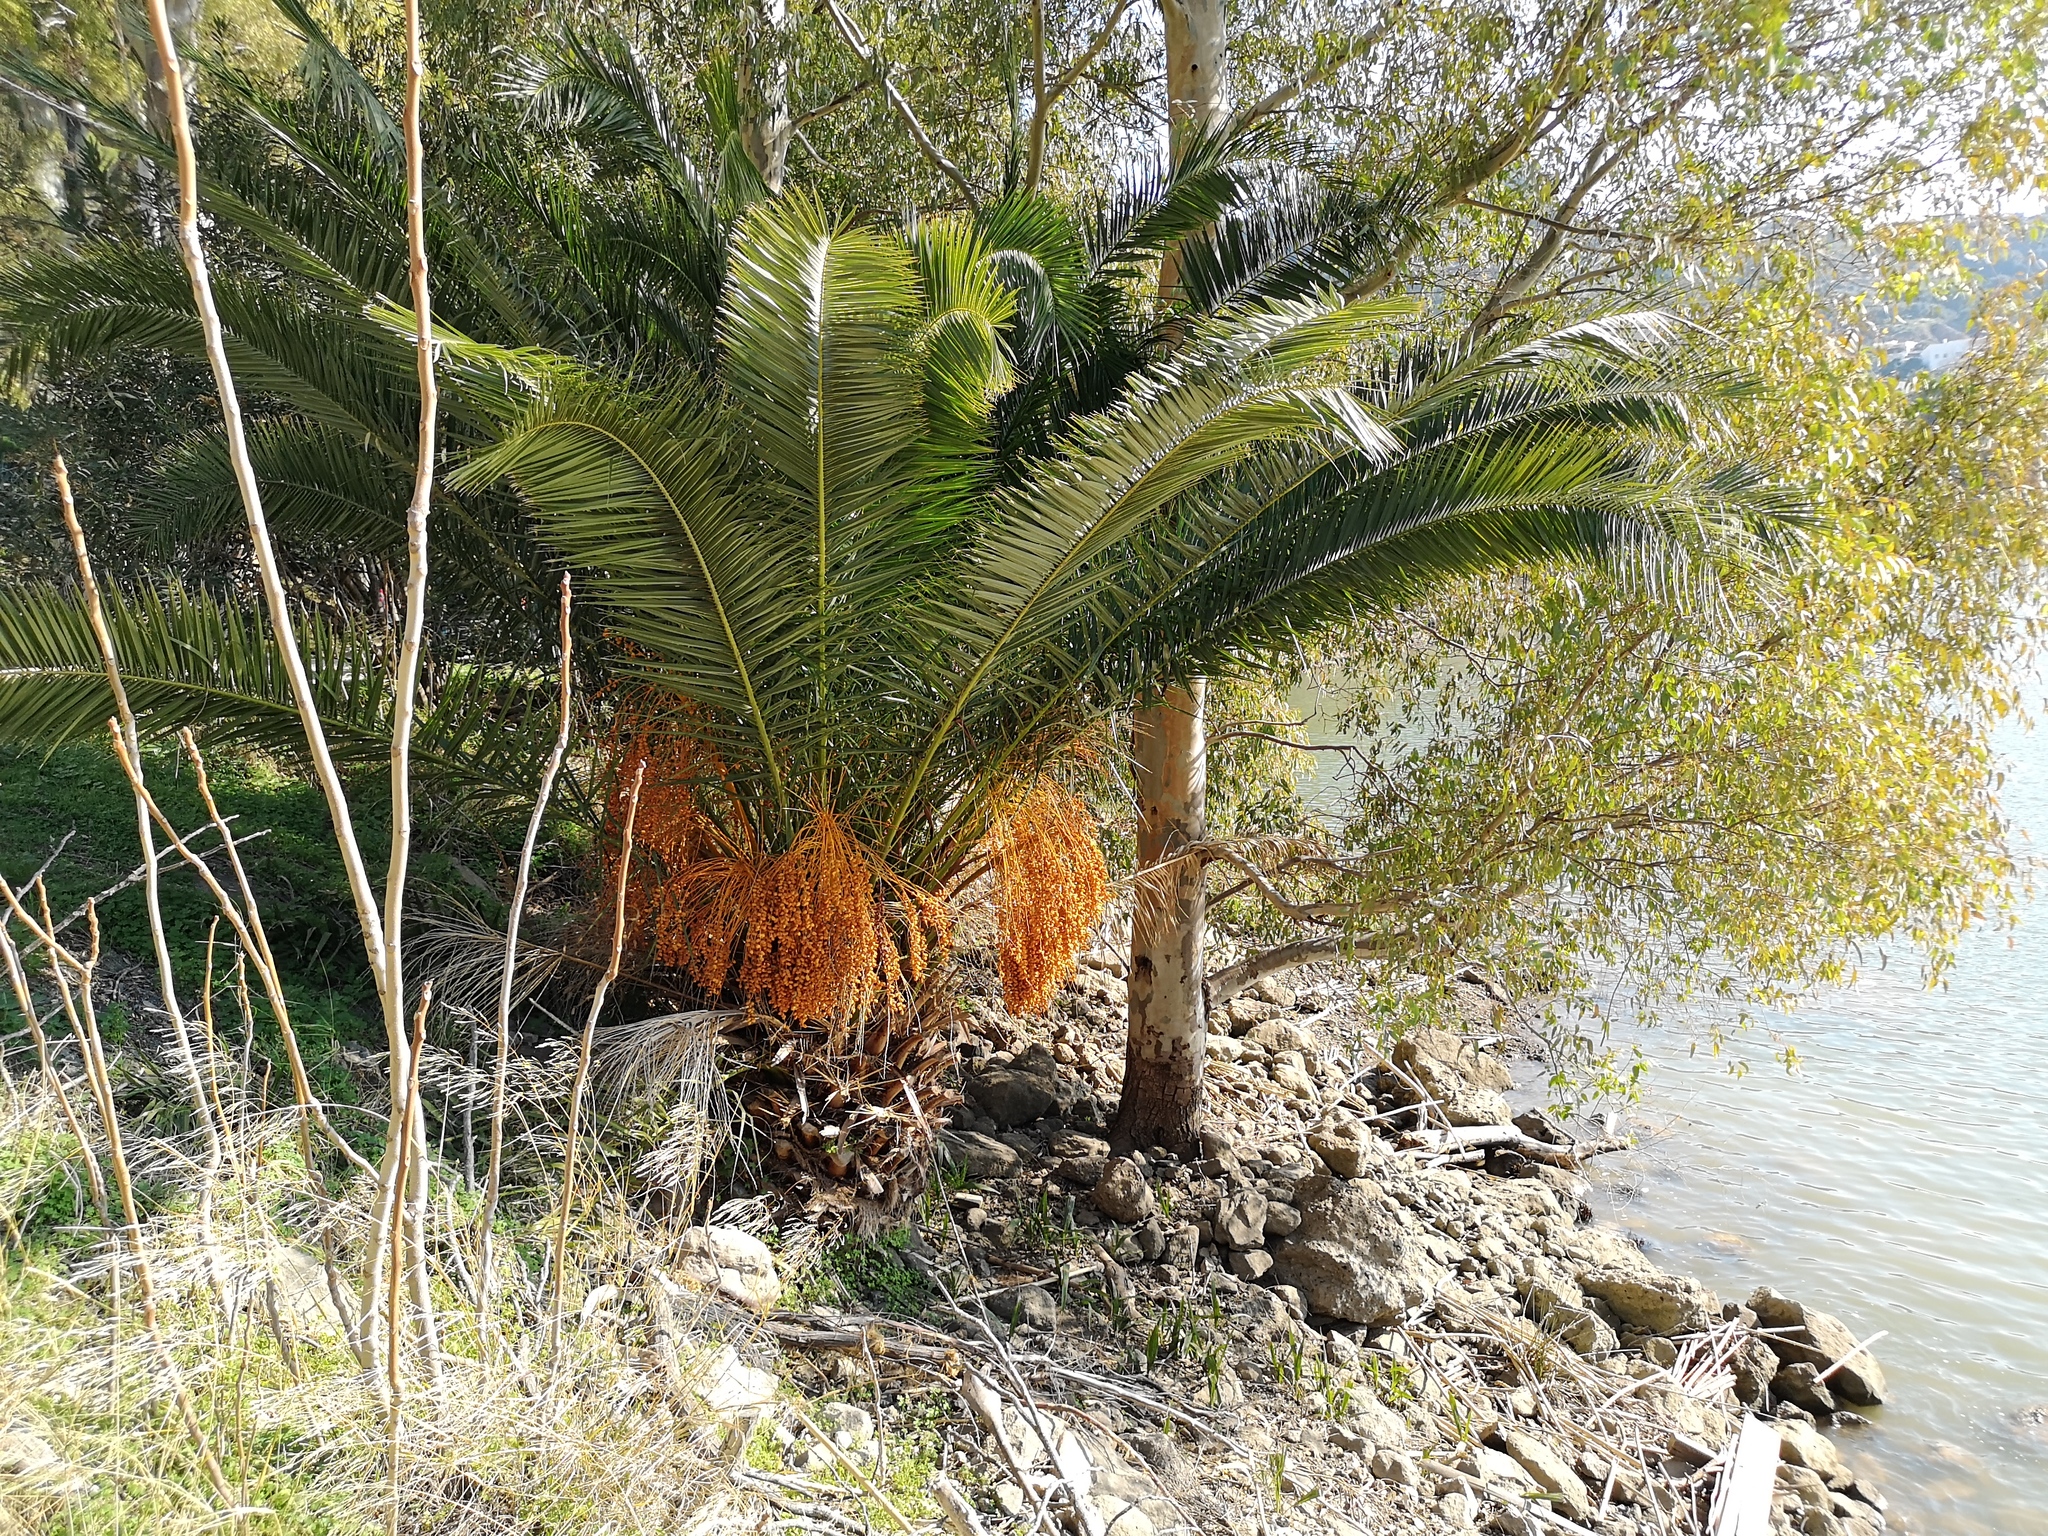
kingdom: Plantae
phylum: Tracheophyta
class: Liliopsida
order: Arecales
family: Arecaceae
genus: Phoenix
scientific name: Phoenix canariensis
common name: Canary island date palm
